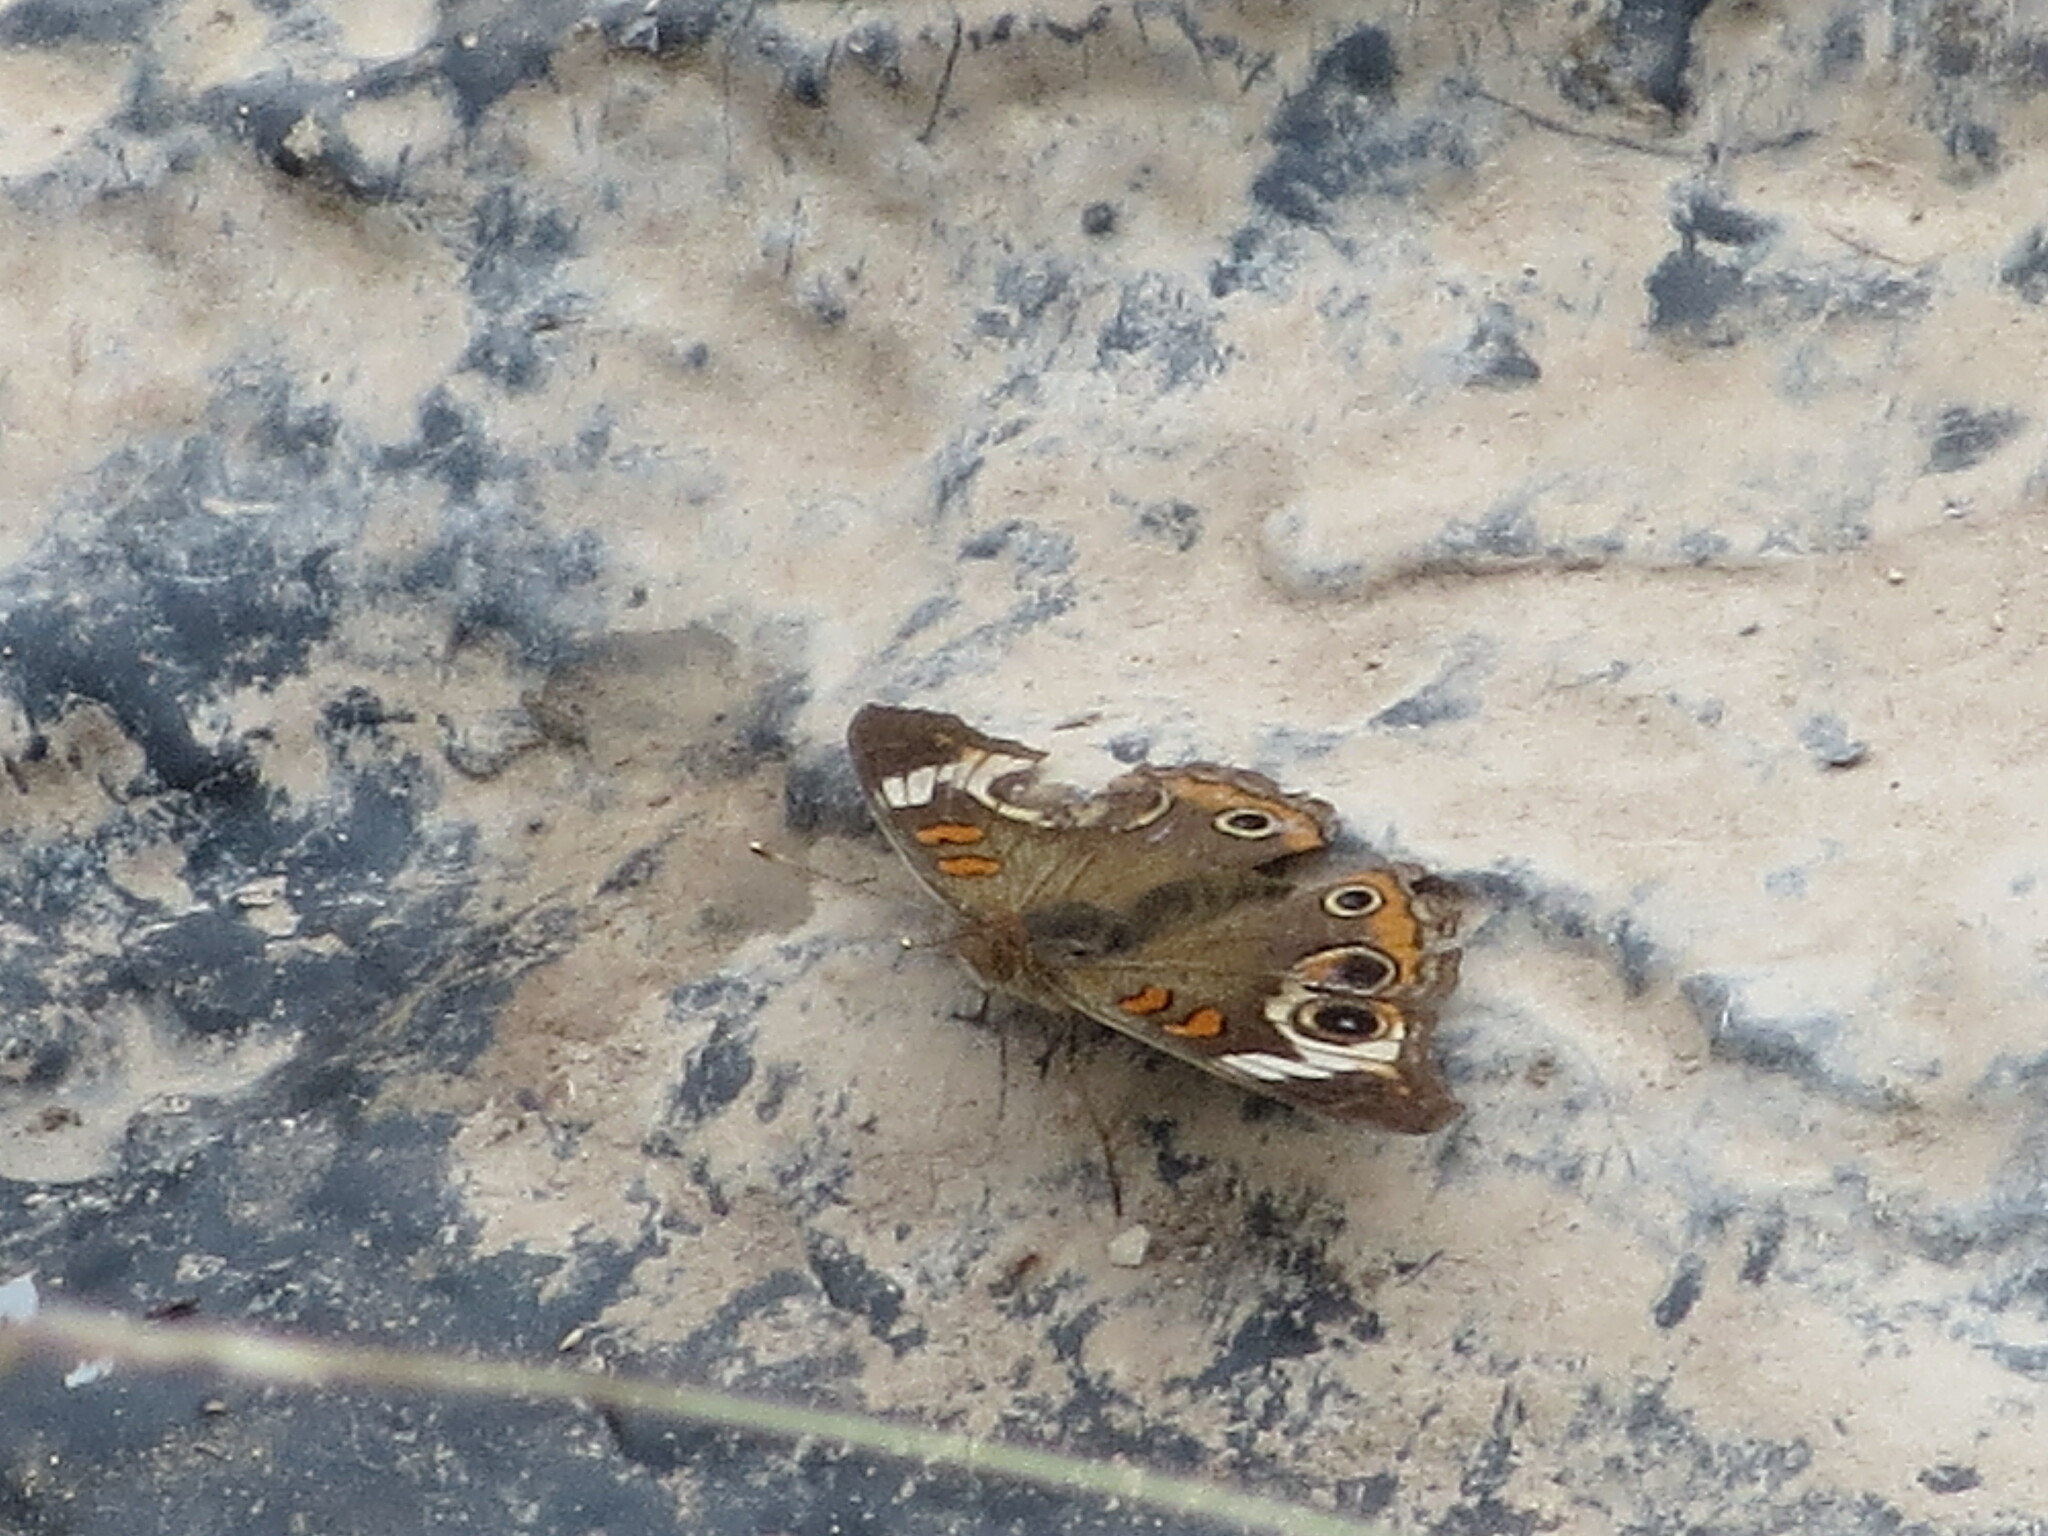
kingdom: Animalia
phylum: Arthropoda
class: Insecta
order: Lepidoptera
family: Nymphalidae
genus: Junonia
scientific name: Junonia coenia
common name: Common buckeye
